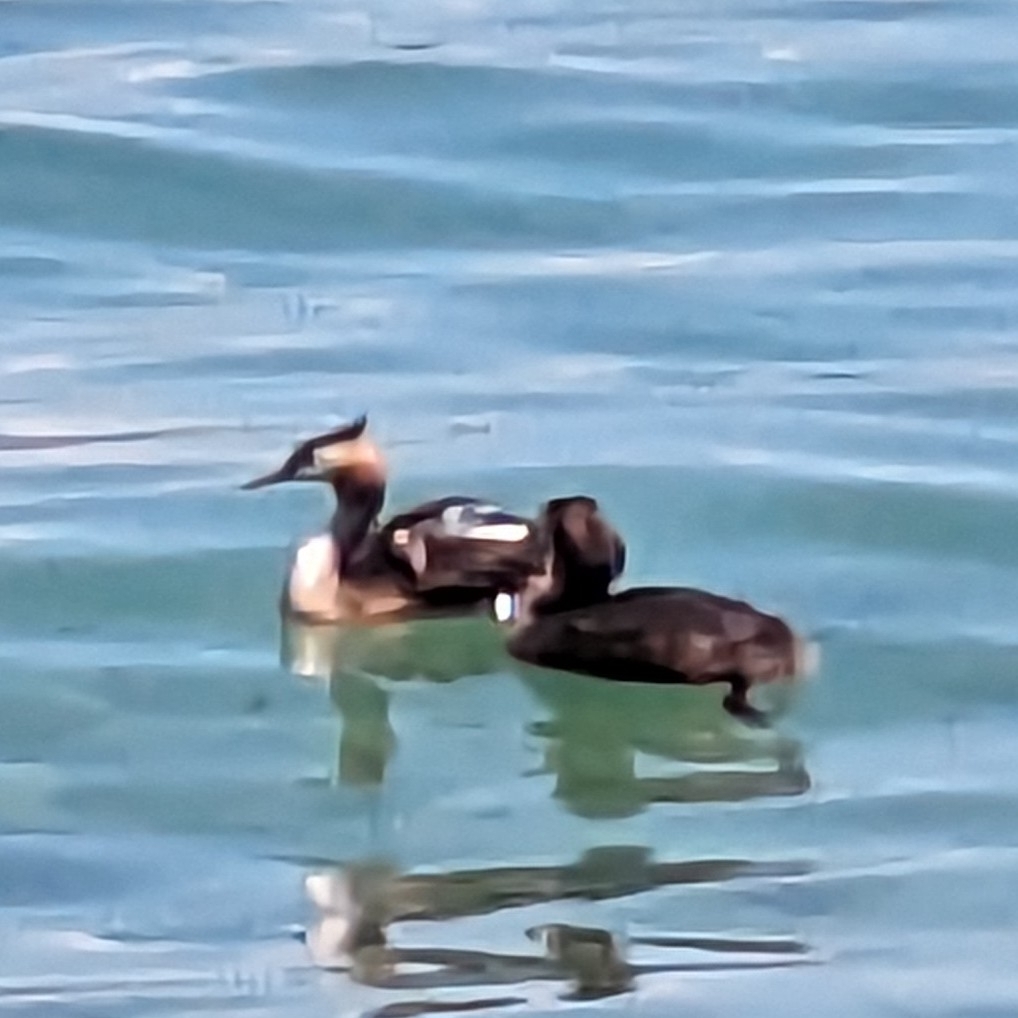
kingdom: Animalia
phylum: Chordata
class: Aves
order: Podicipediformes
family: Podicipedidae
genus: Podiceps
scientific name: Podiceps cristatus
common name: Great crested grebe
